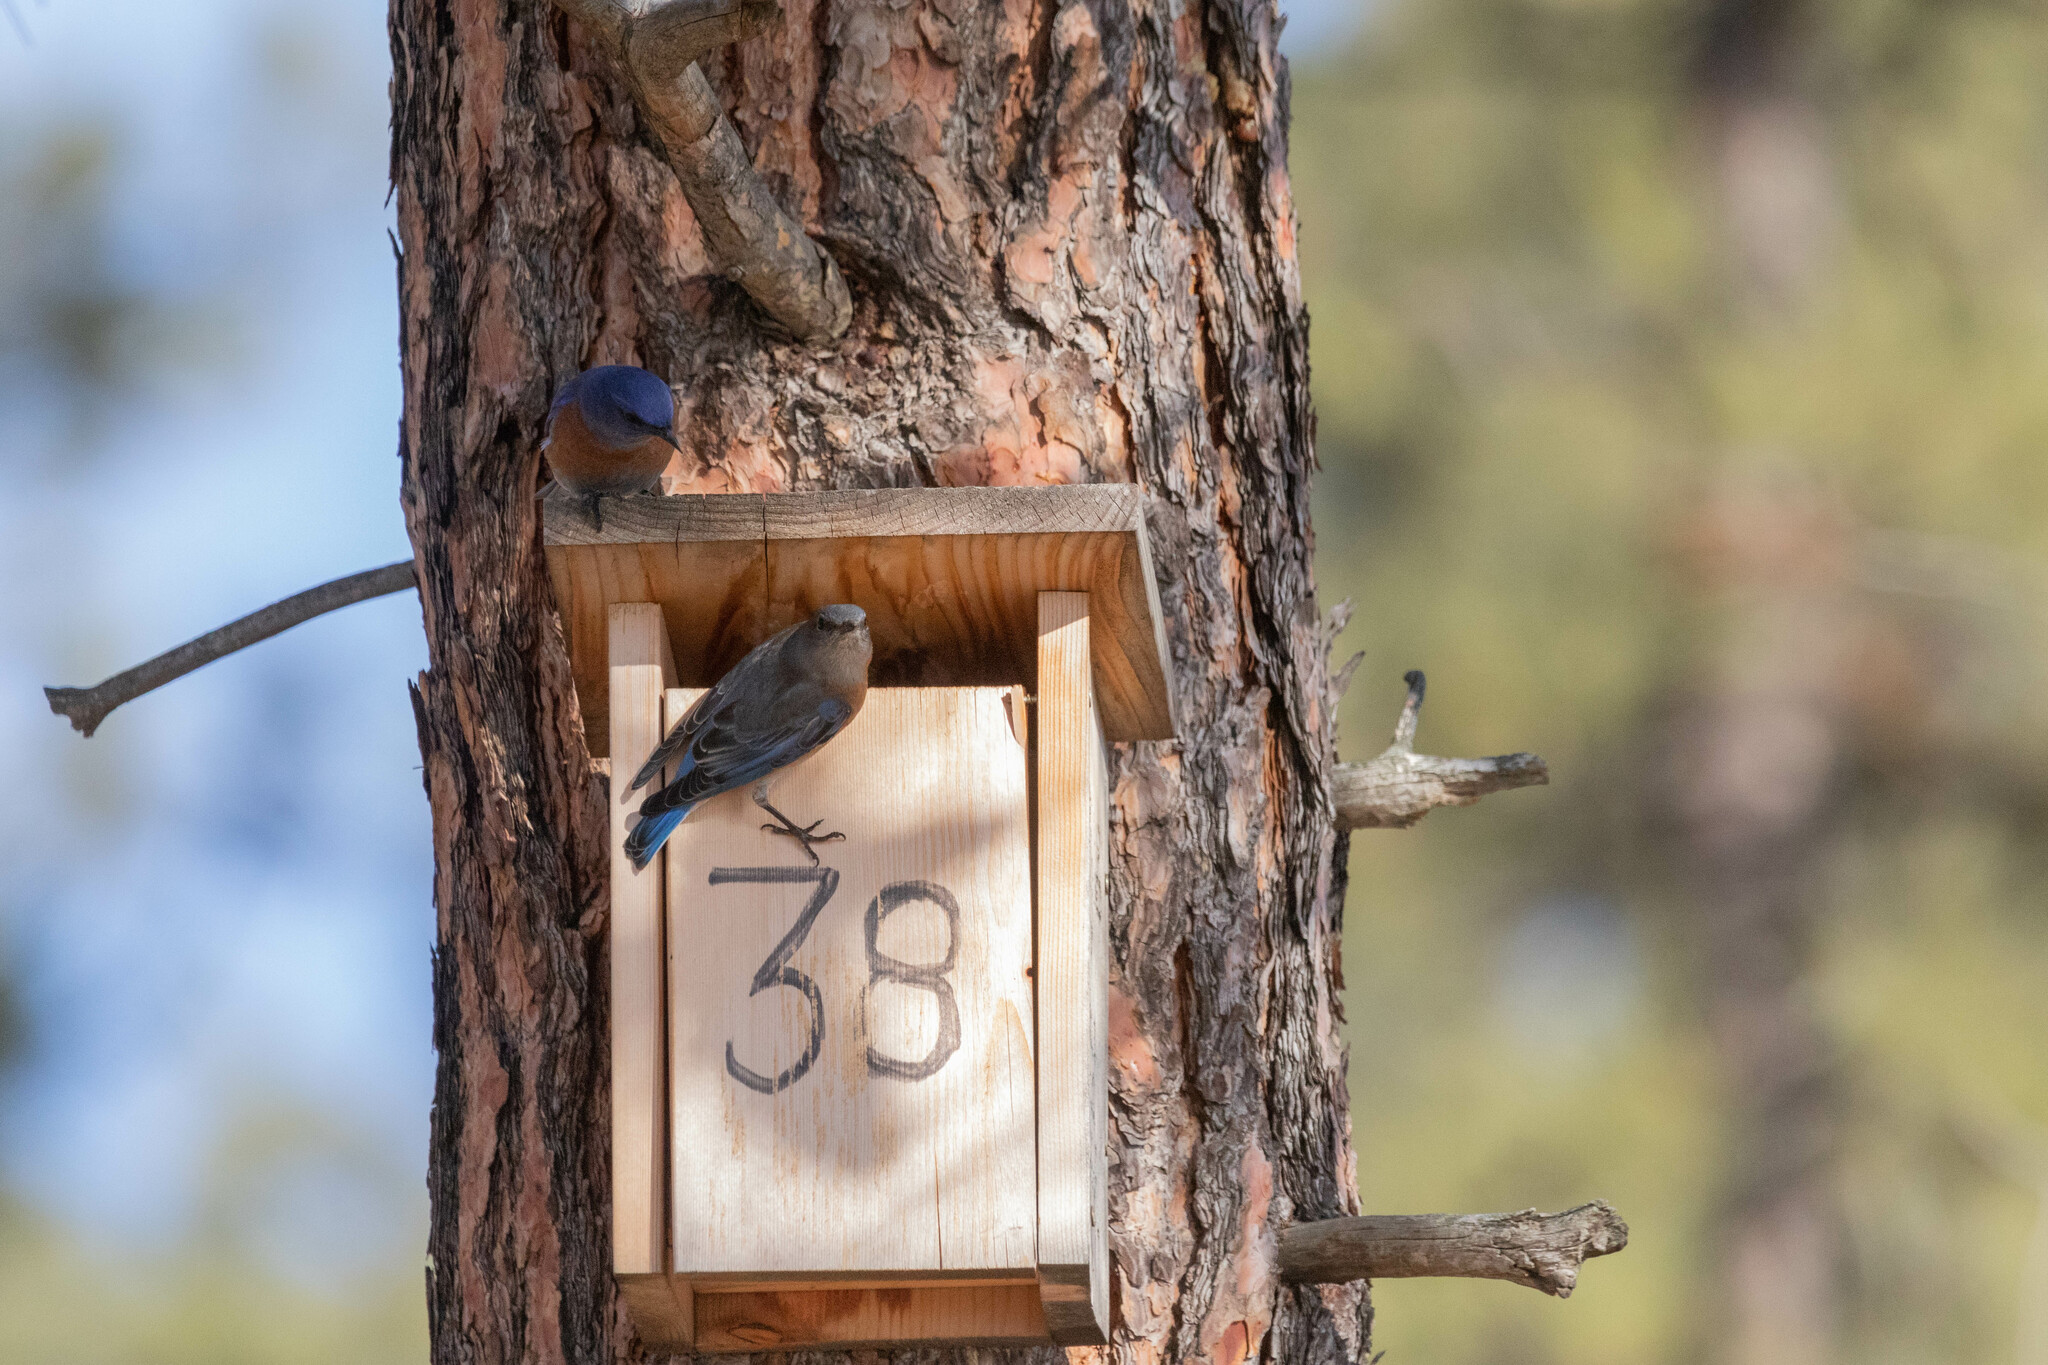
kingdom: Animalia
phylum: Chordata
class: Aves
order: Passeriformes
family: Turdidae
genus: Sialia
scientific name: Sialia mexicana
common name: Western bluebird
